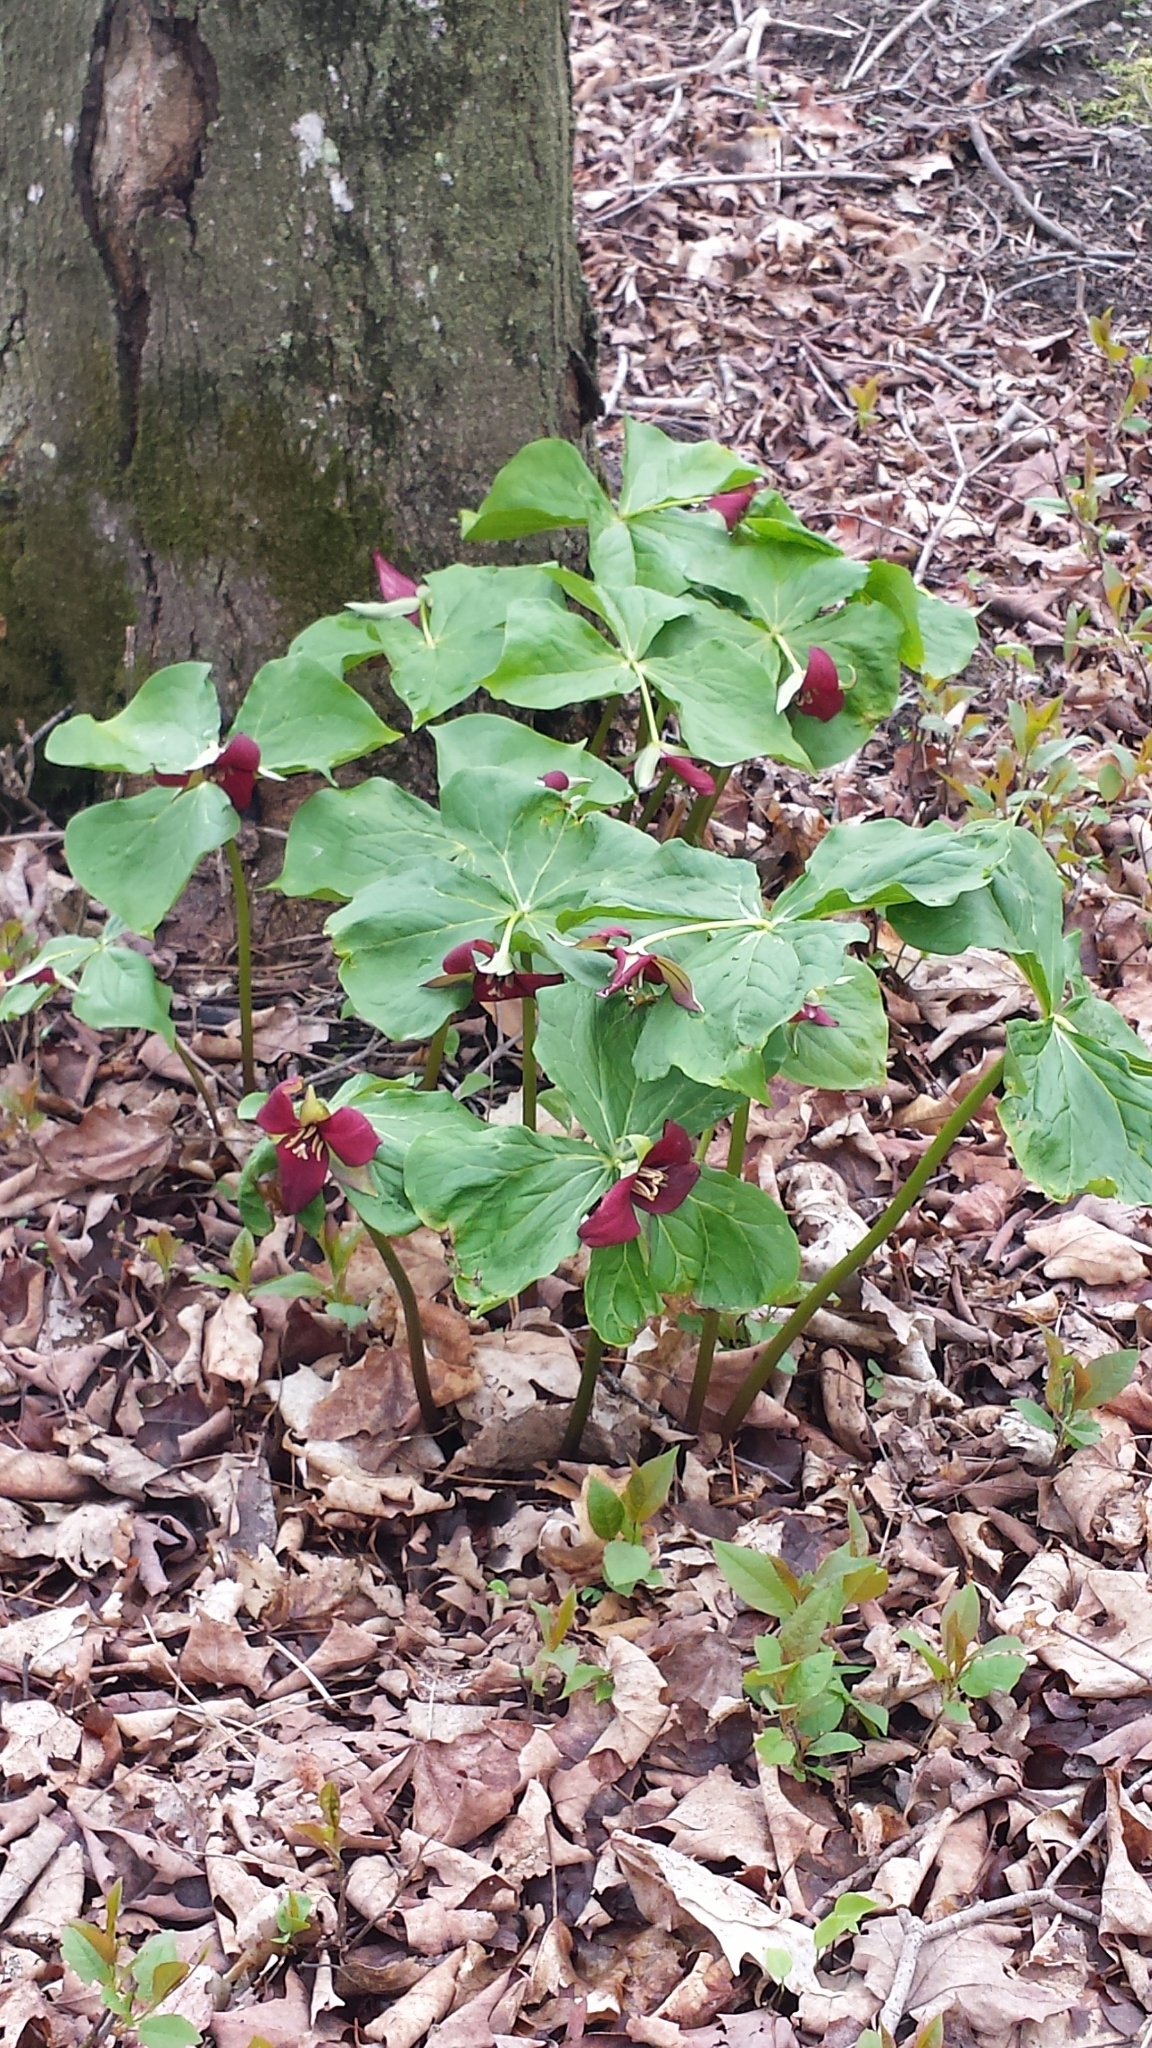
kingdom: Plantae
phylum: Tracheophyta
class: Liliopsida
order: Liliales
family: Melanthiaceae
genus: Trillium
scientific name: Trillium erectum
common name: Purple trillium
